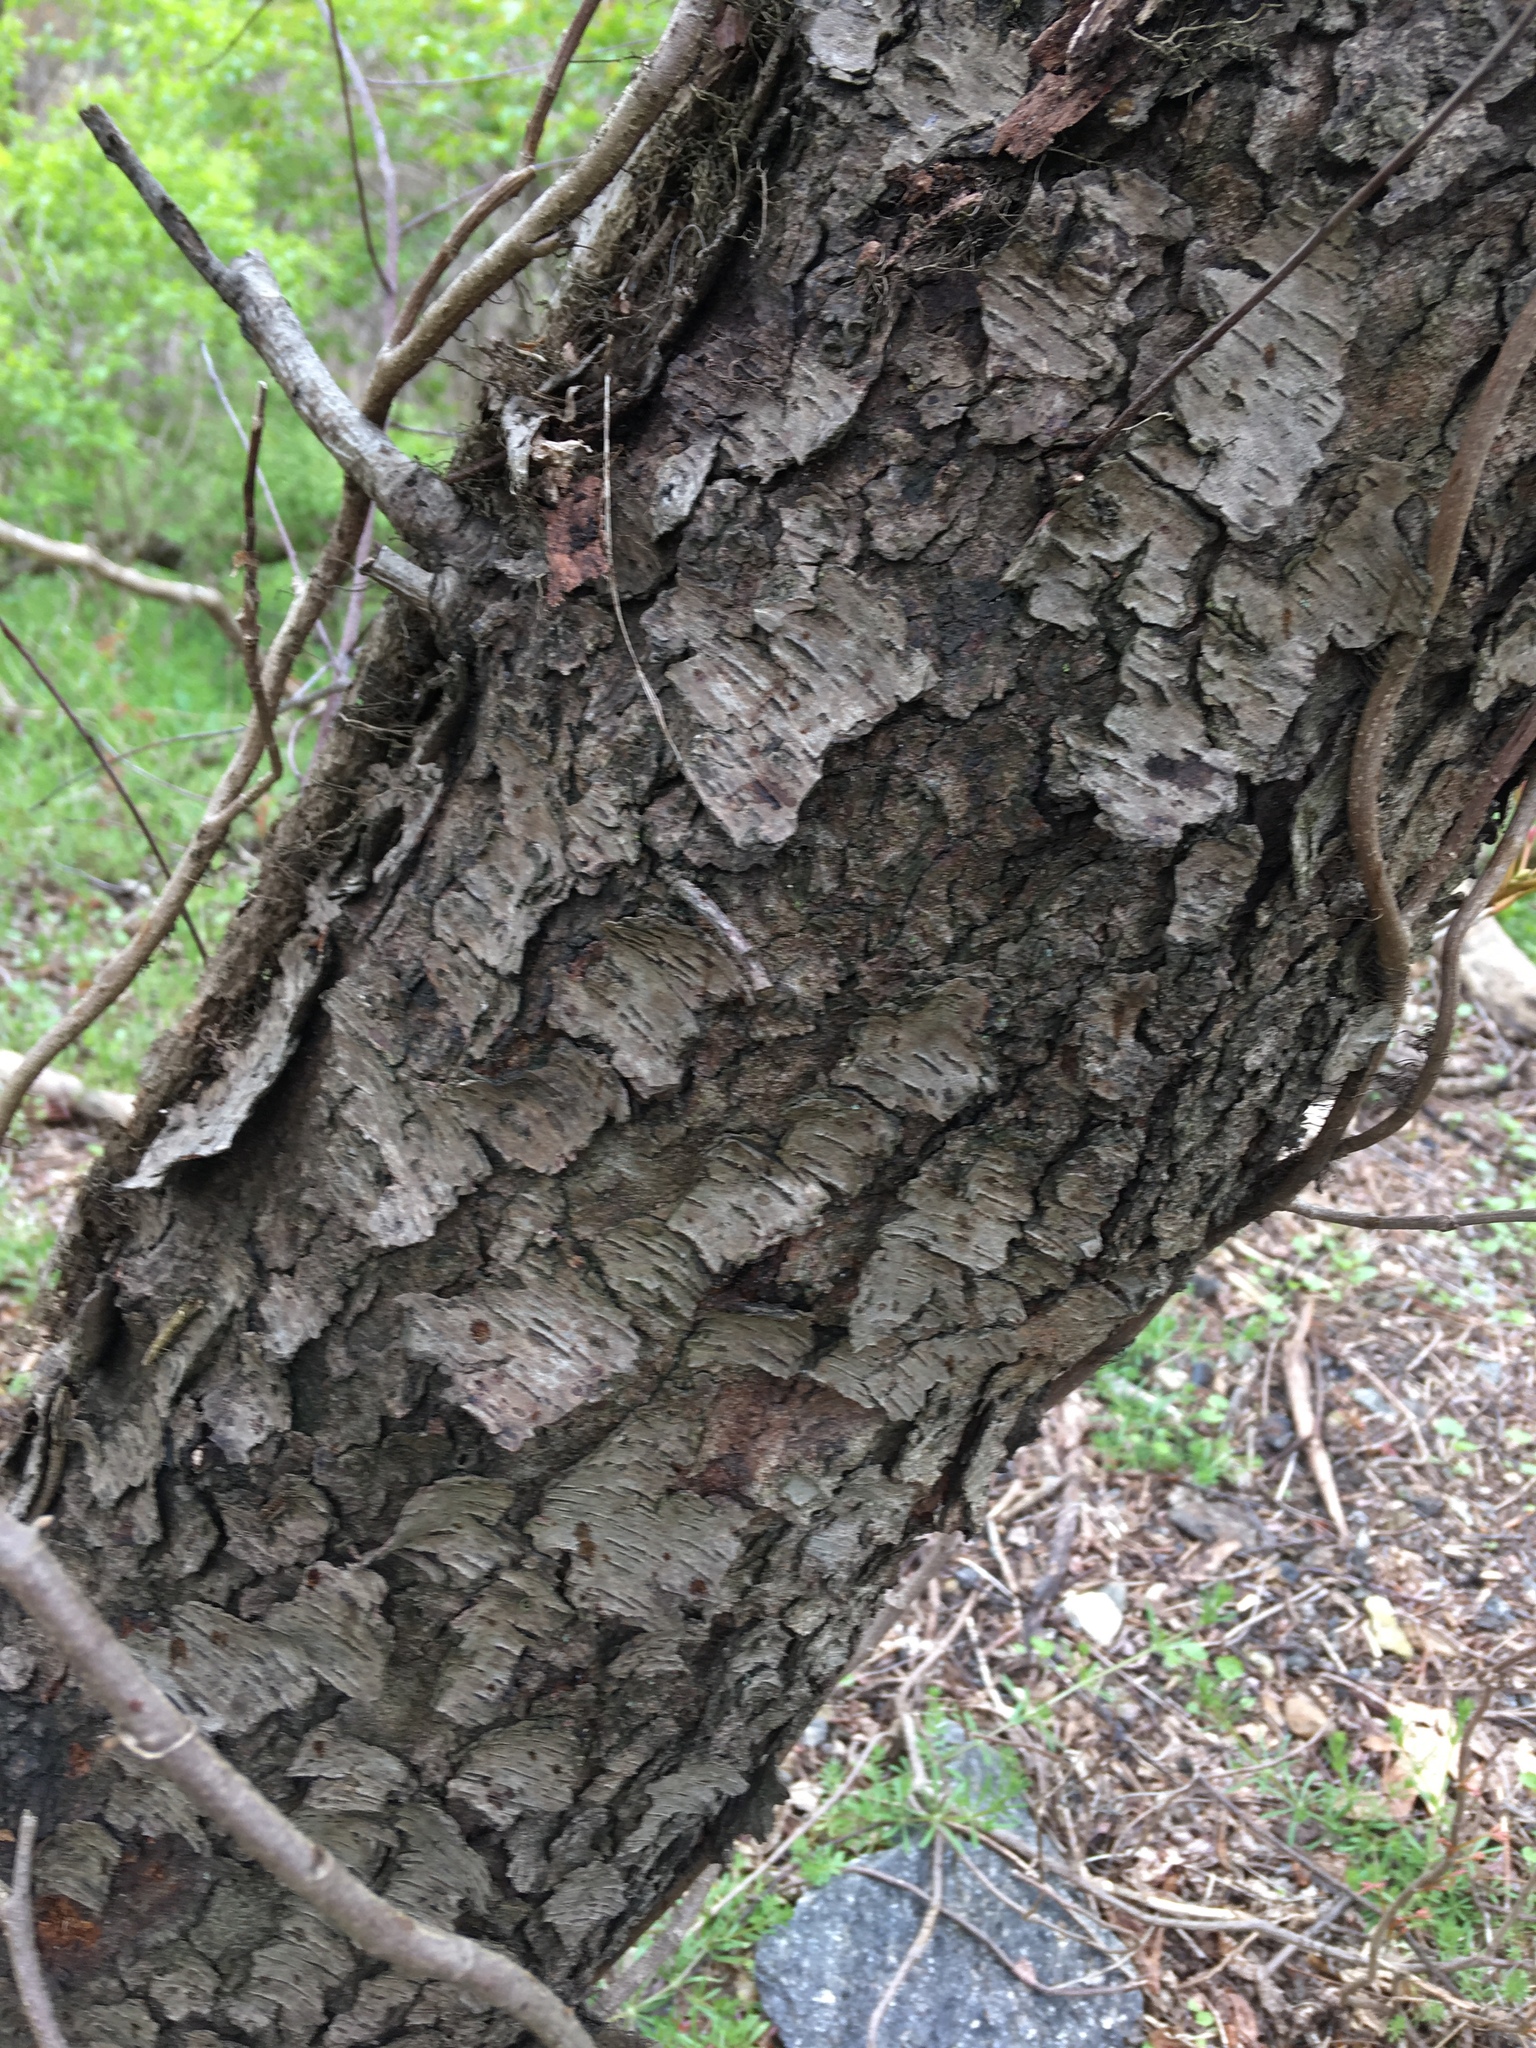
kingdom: Plantae
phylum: Tracheophyta
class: Magnoliopsida
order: Rosales
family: Rosaceae
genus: Prunus
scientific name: Prunus serotina
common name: Black cherry
